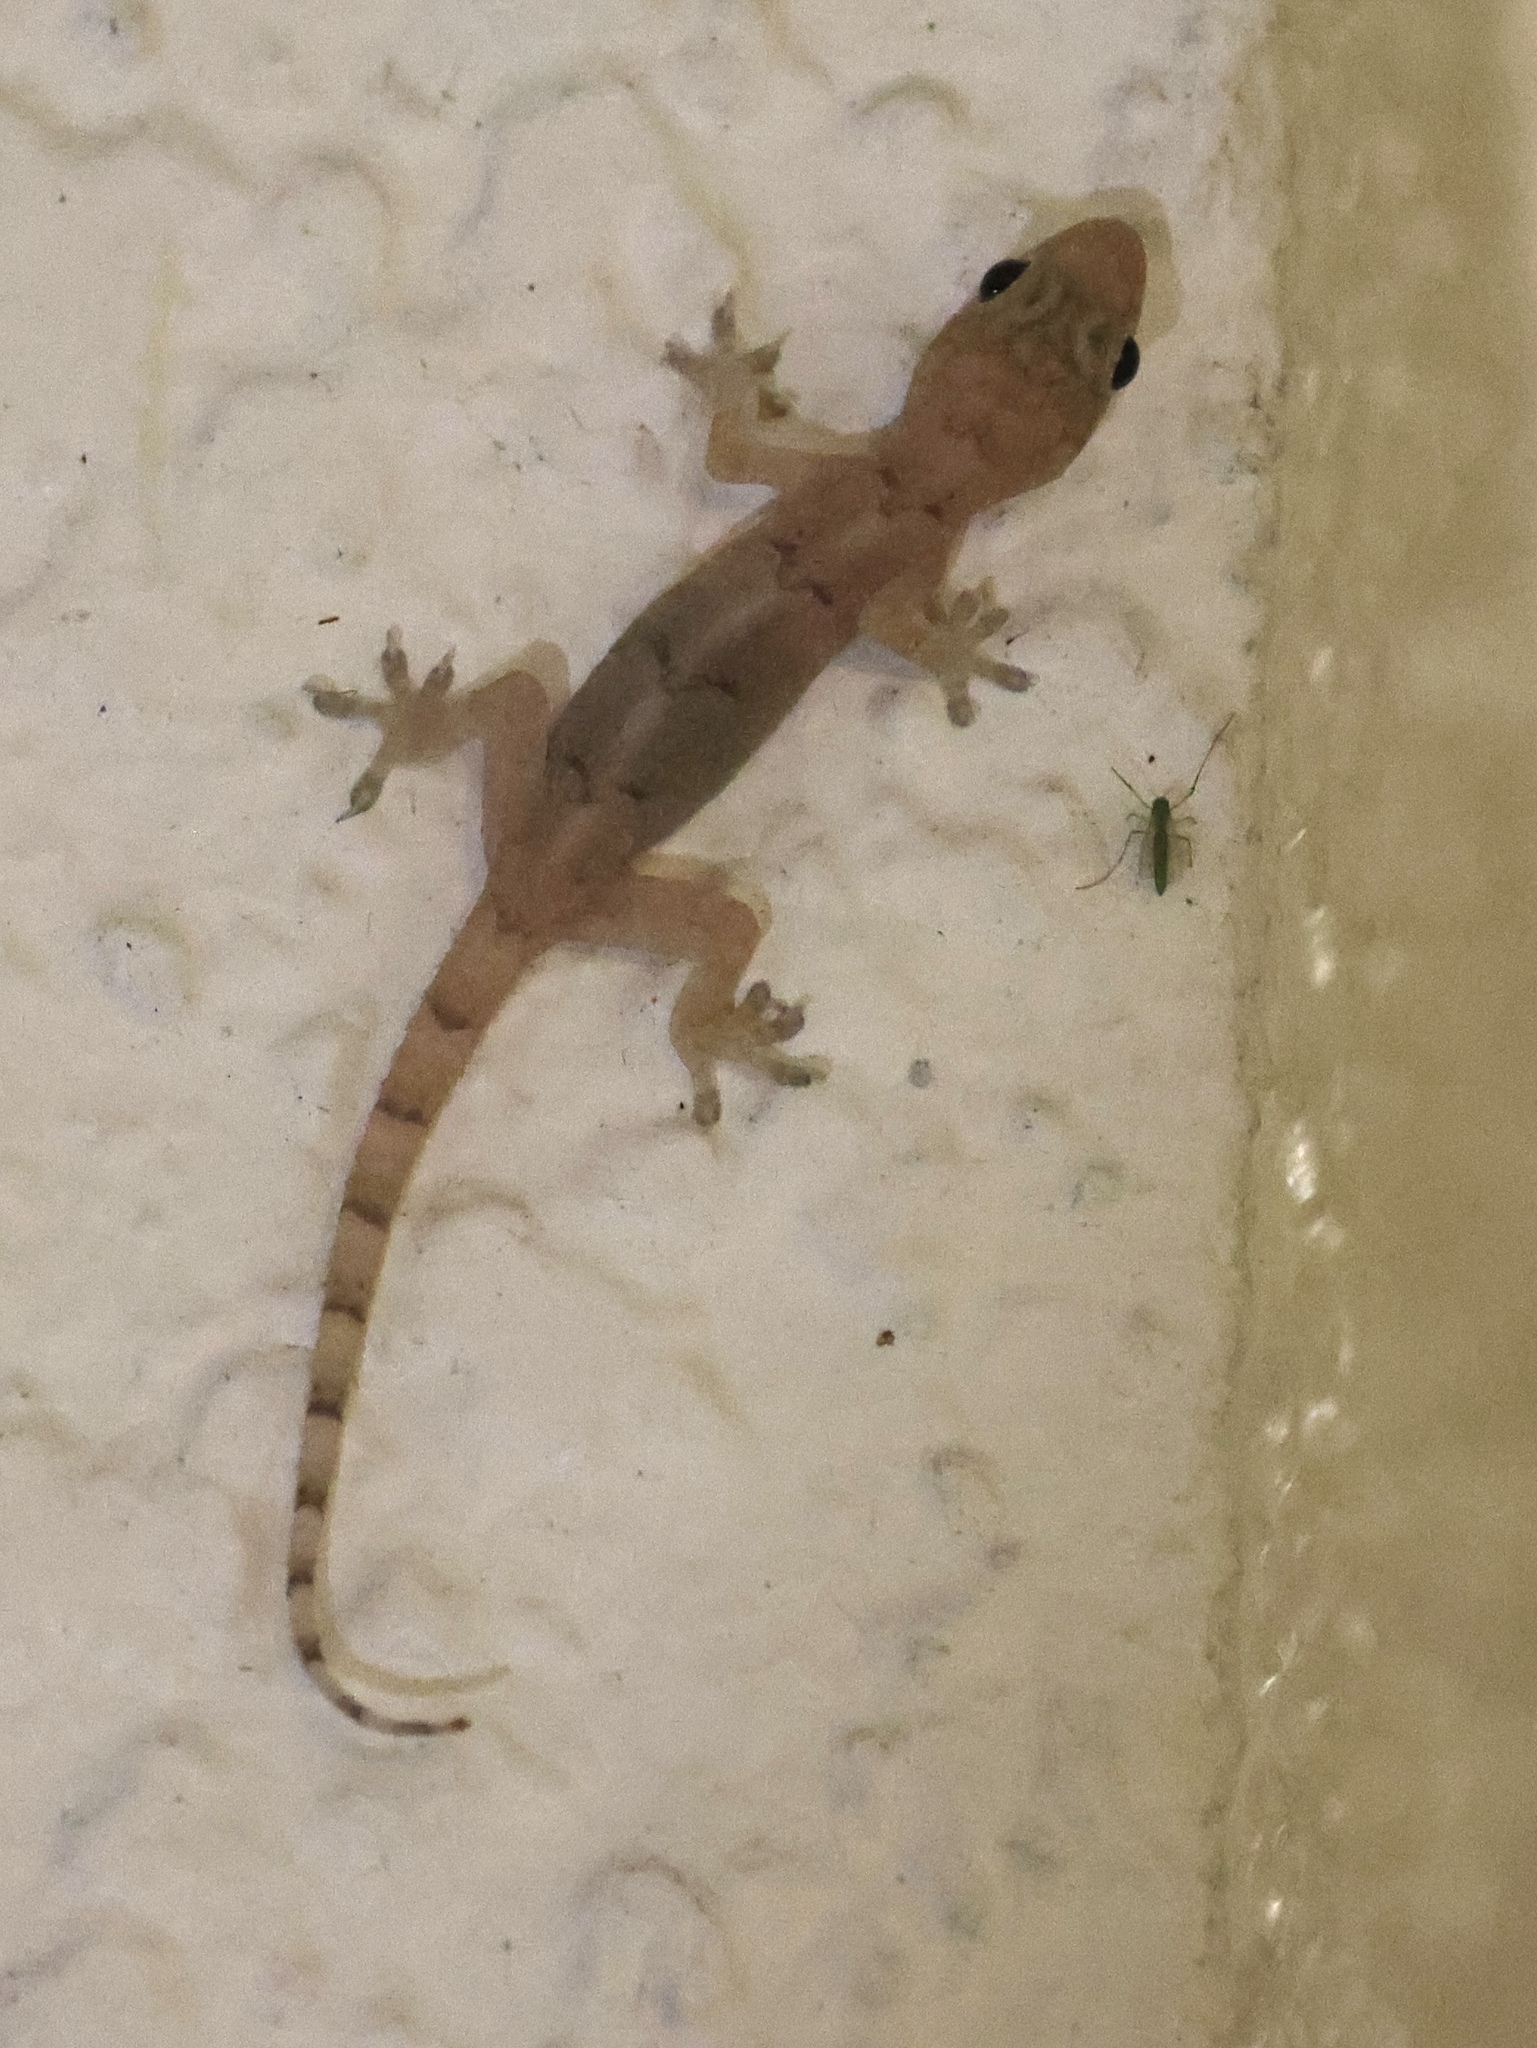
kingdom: Animalia
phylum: Chordata
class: Squamata
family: Gekkonidae
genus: Hemidactylus
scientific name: Hemidactylus mabouia
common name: House gecko
